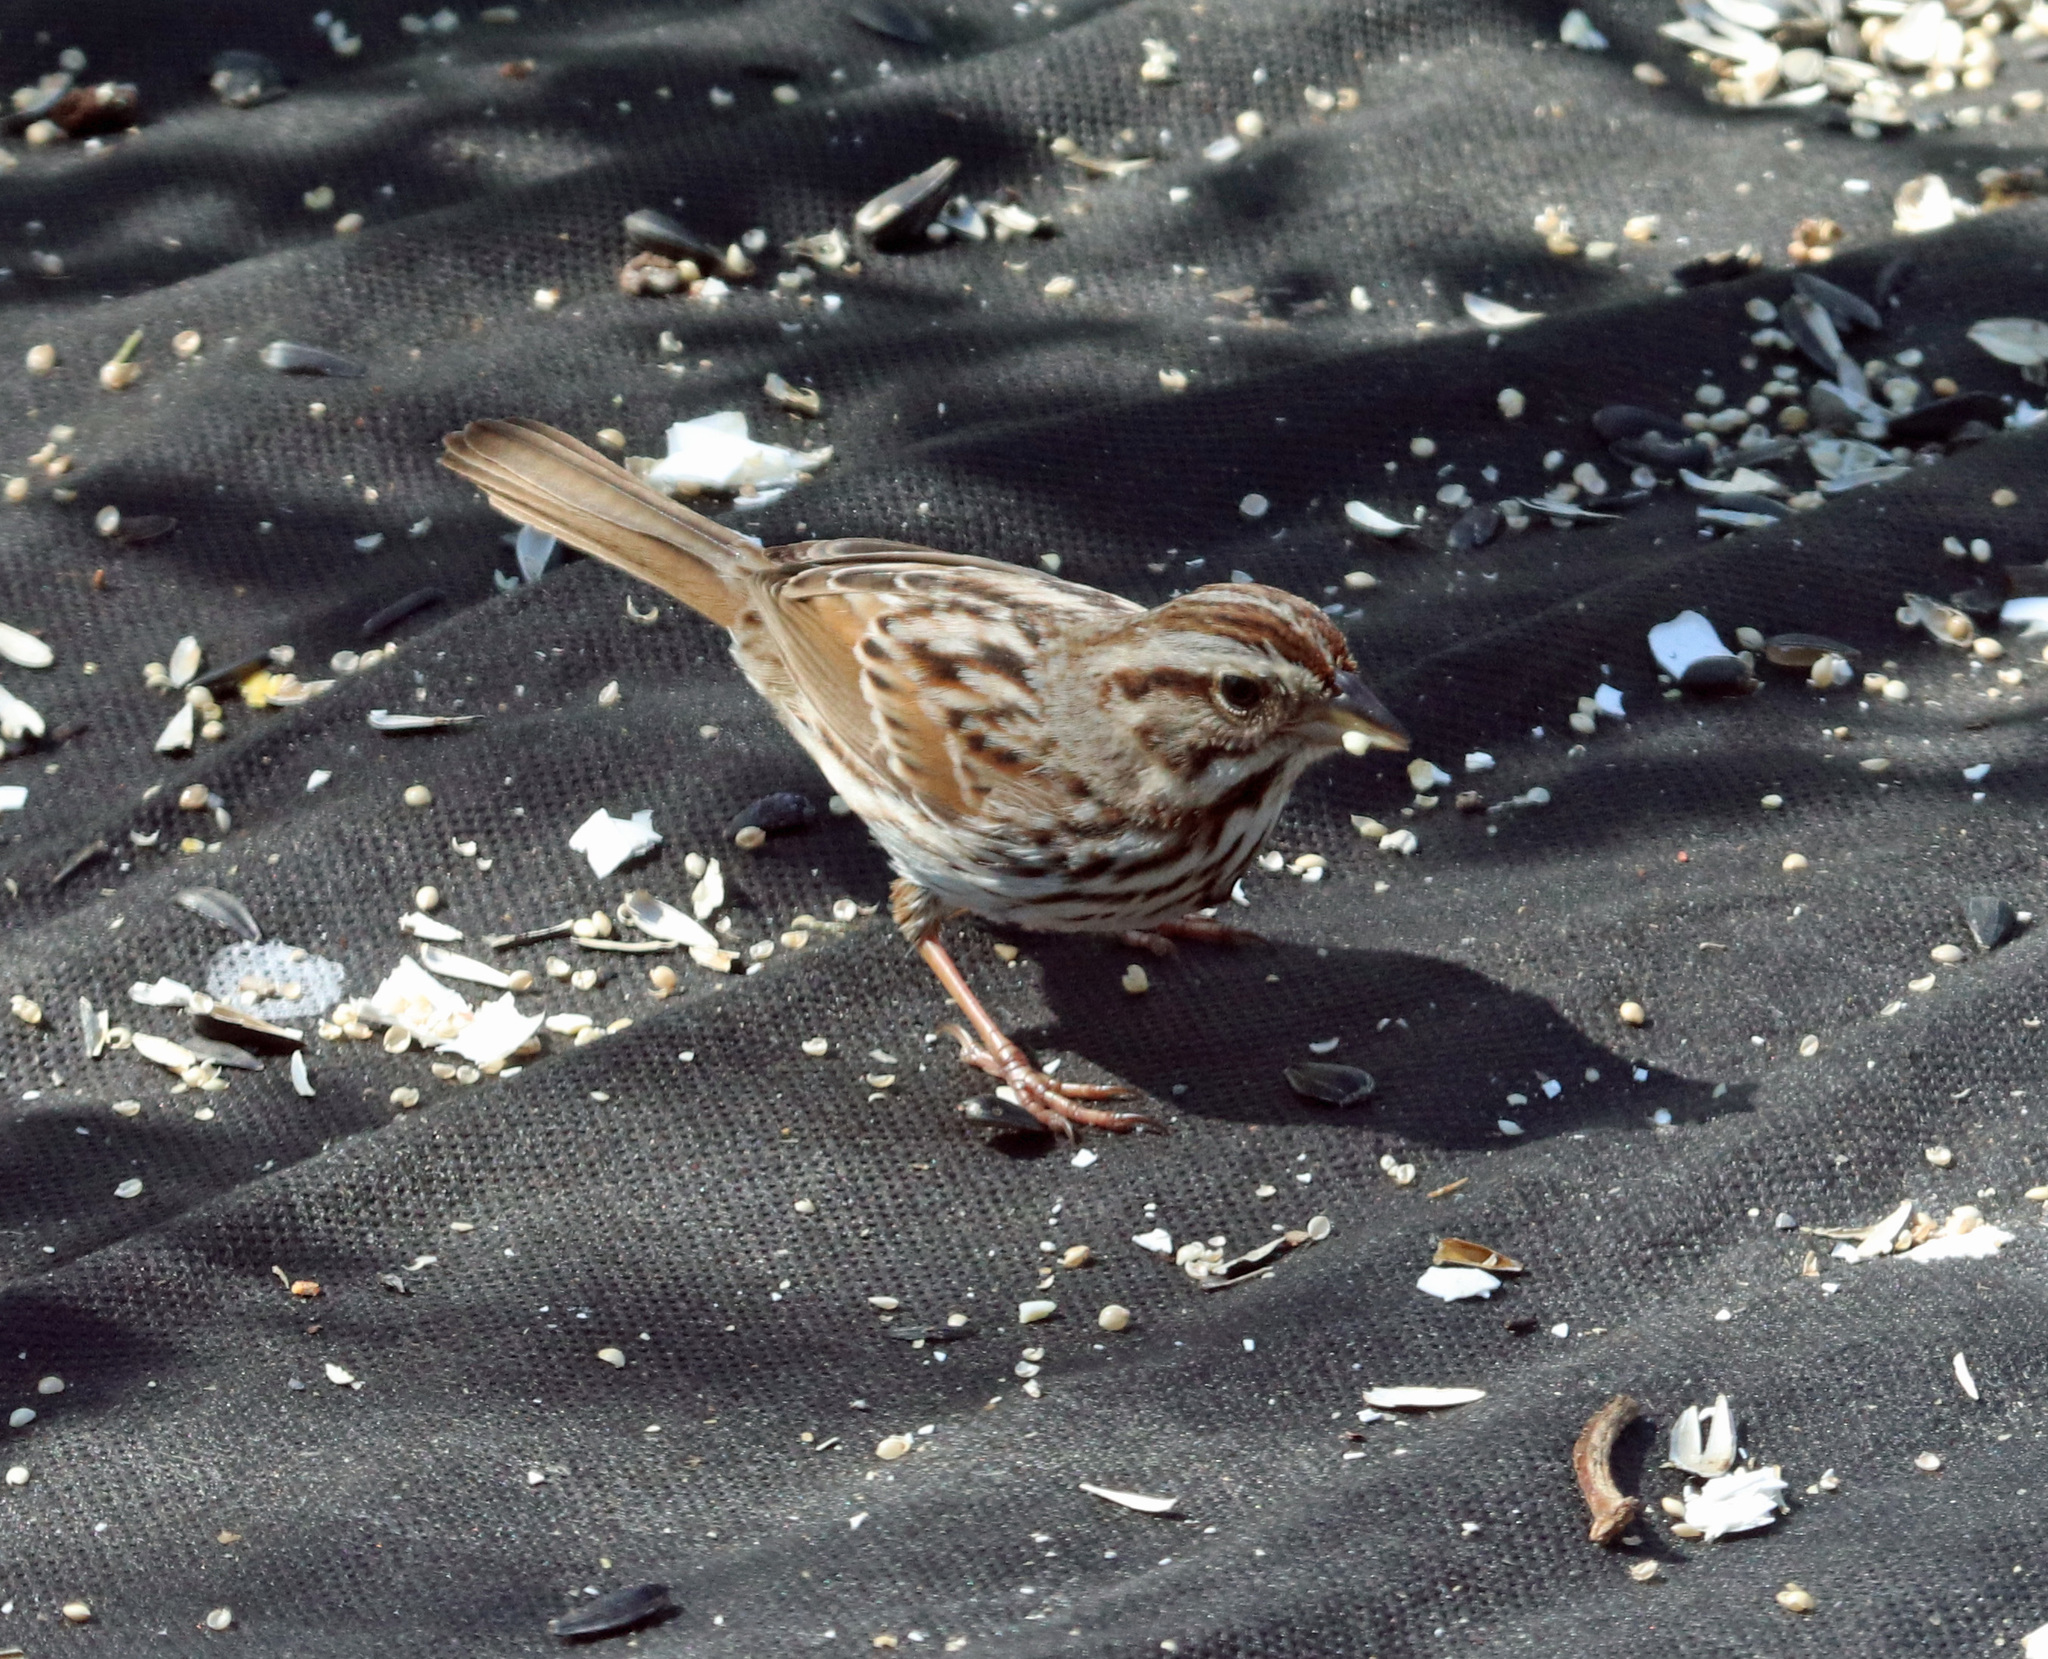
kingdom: Animalia
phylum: Chordata
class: Aves
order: Passeriformes
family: Passerellidae
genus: Melospiza
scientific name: Melospiza melodia
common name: Song sparrow
